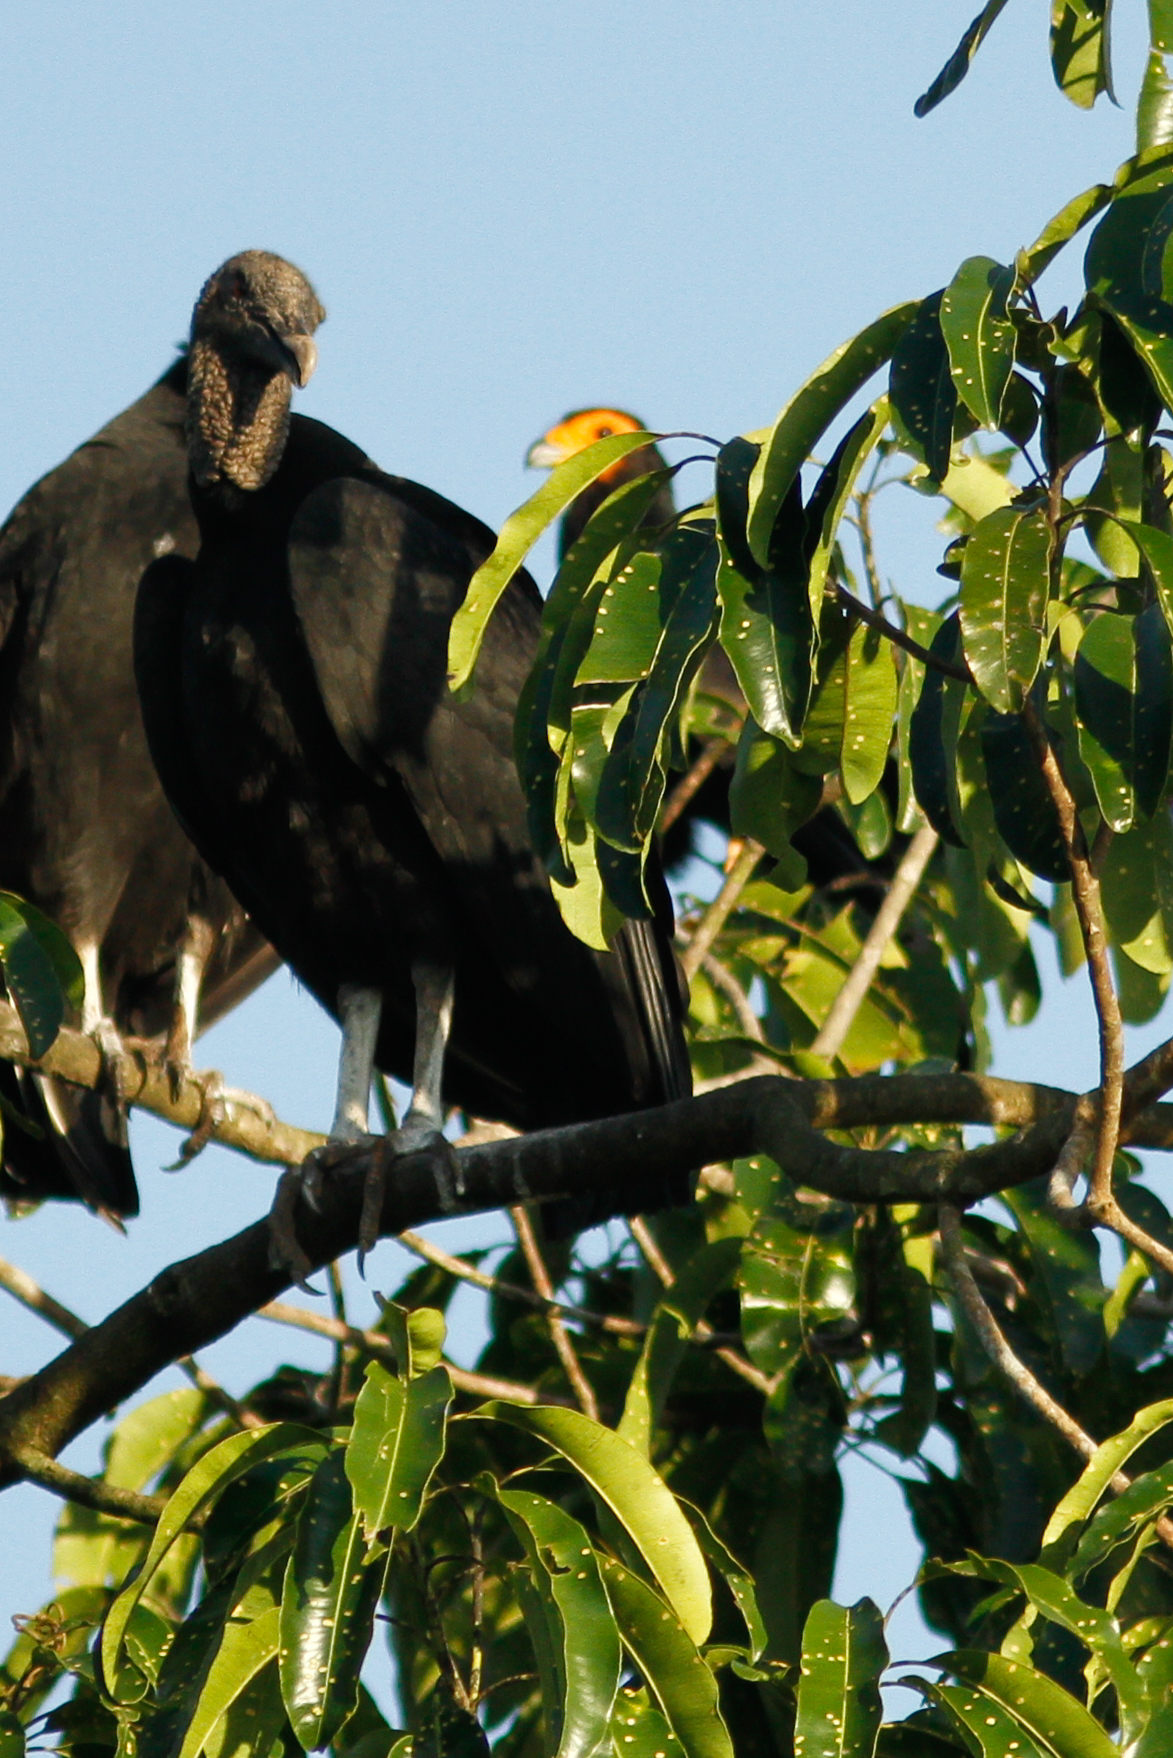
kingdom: Animalia
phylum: Chordata
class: Aves
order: Falconiformes
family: Falconidae
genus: Daptrius
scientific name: Daptrius ater
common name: Black caracara
